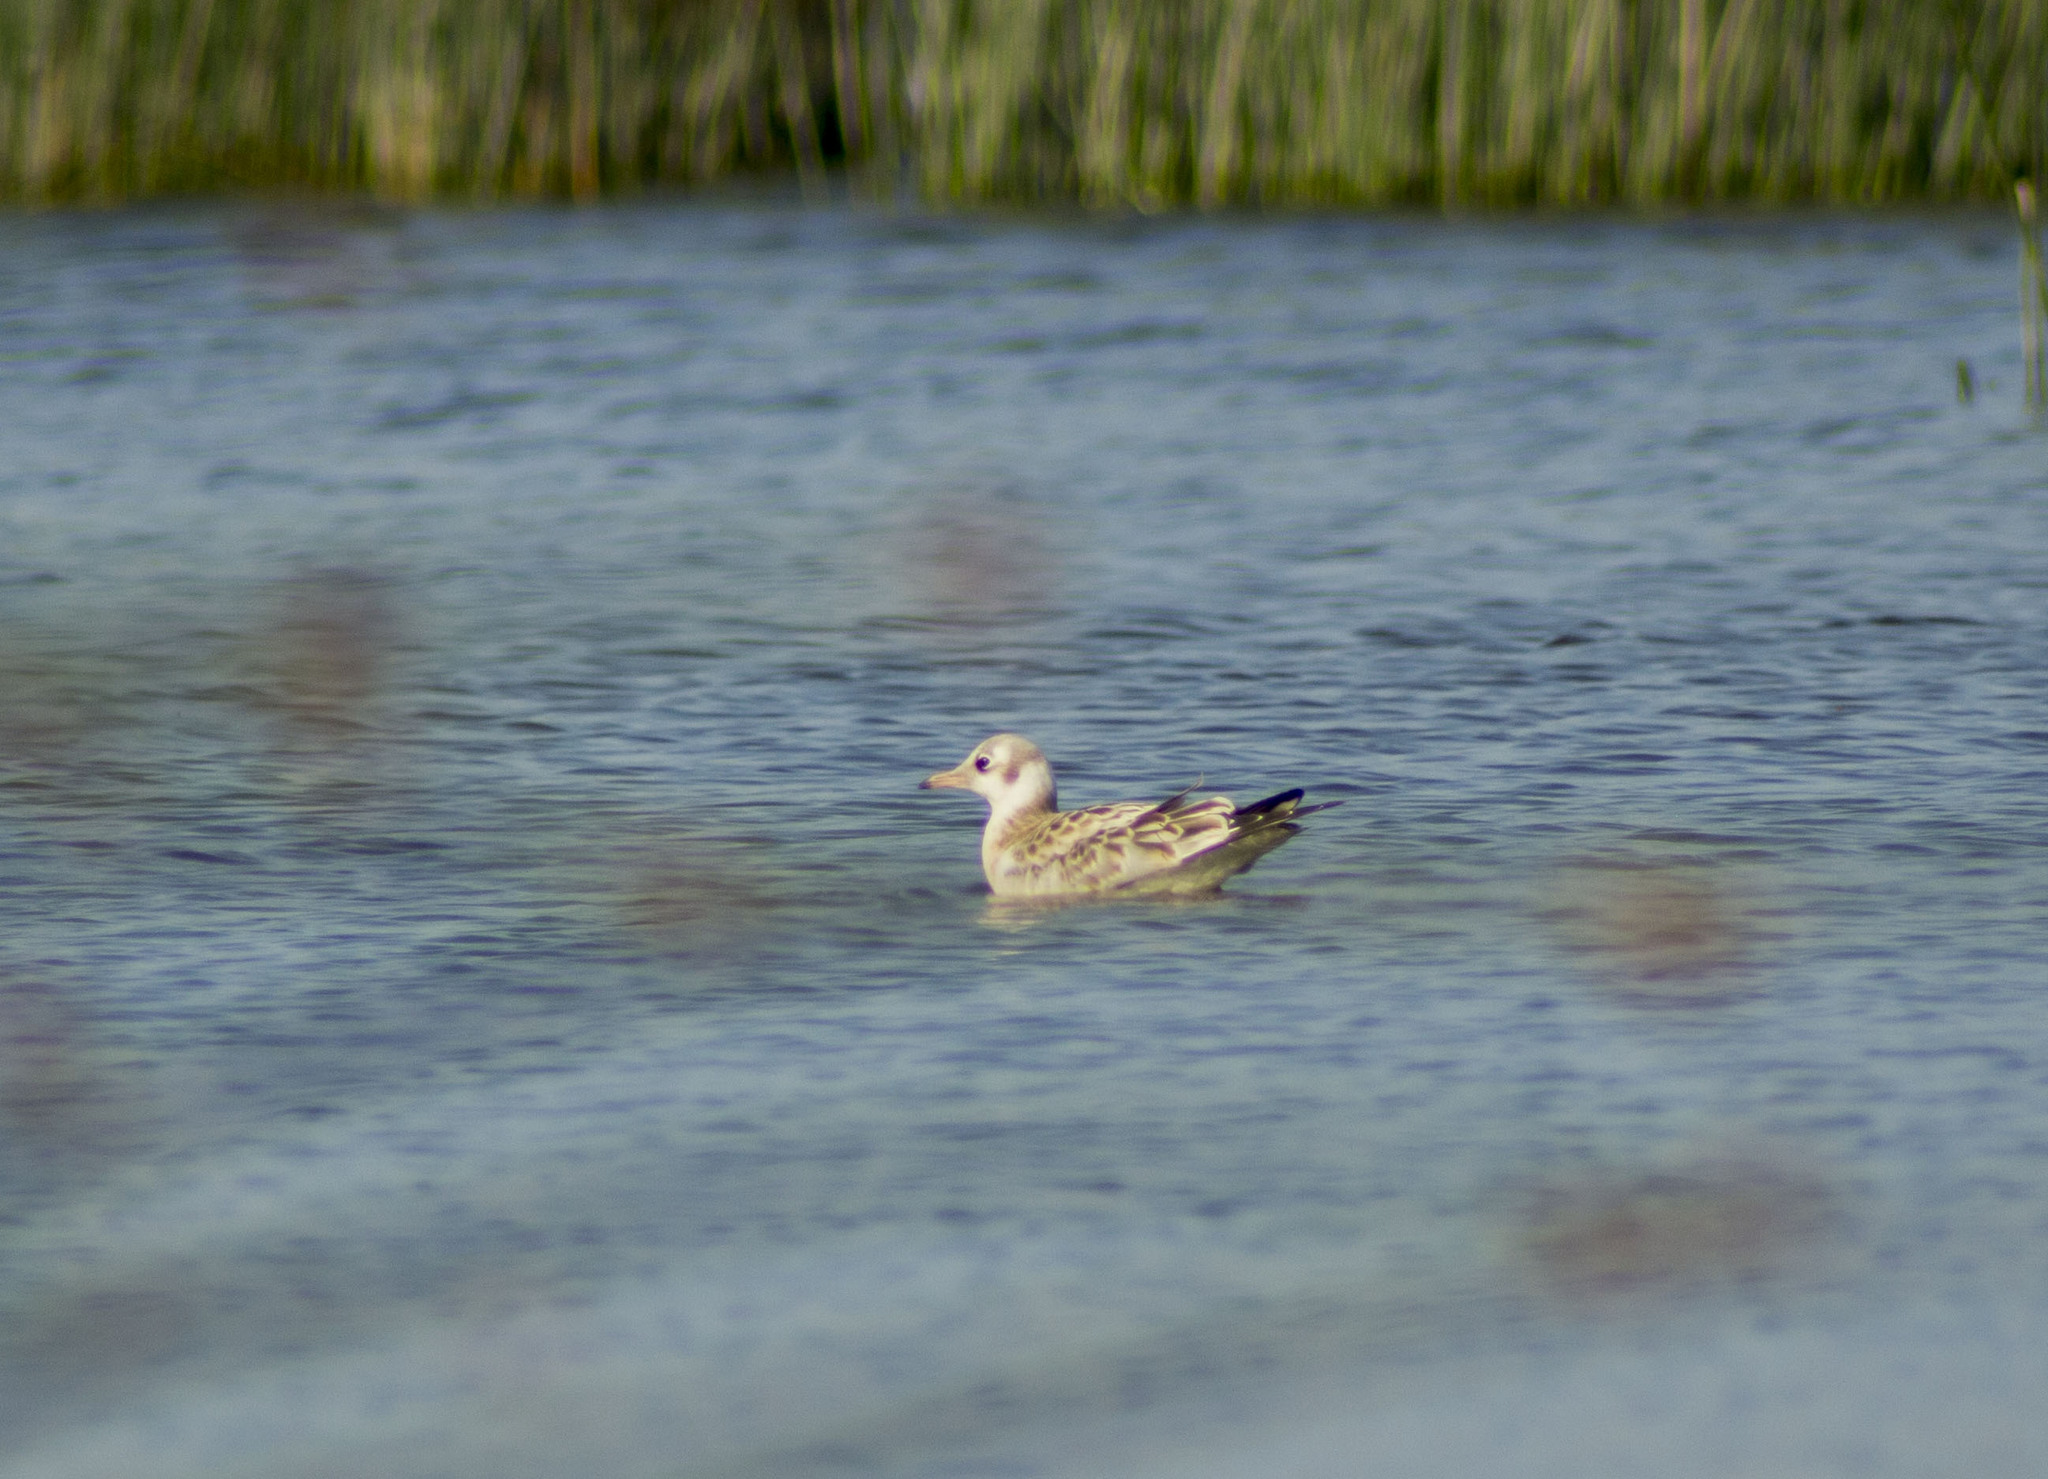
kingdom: Animalia
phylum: Chordata
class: Aves
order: Charadriiformes
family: Laridae
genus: Chroicocephalus
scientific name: Chroicocephalus ridibundus
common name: Black-headed gull
